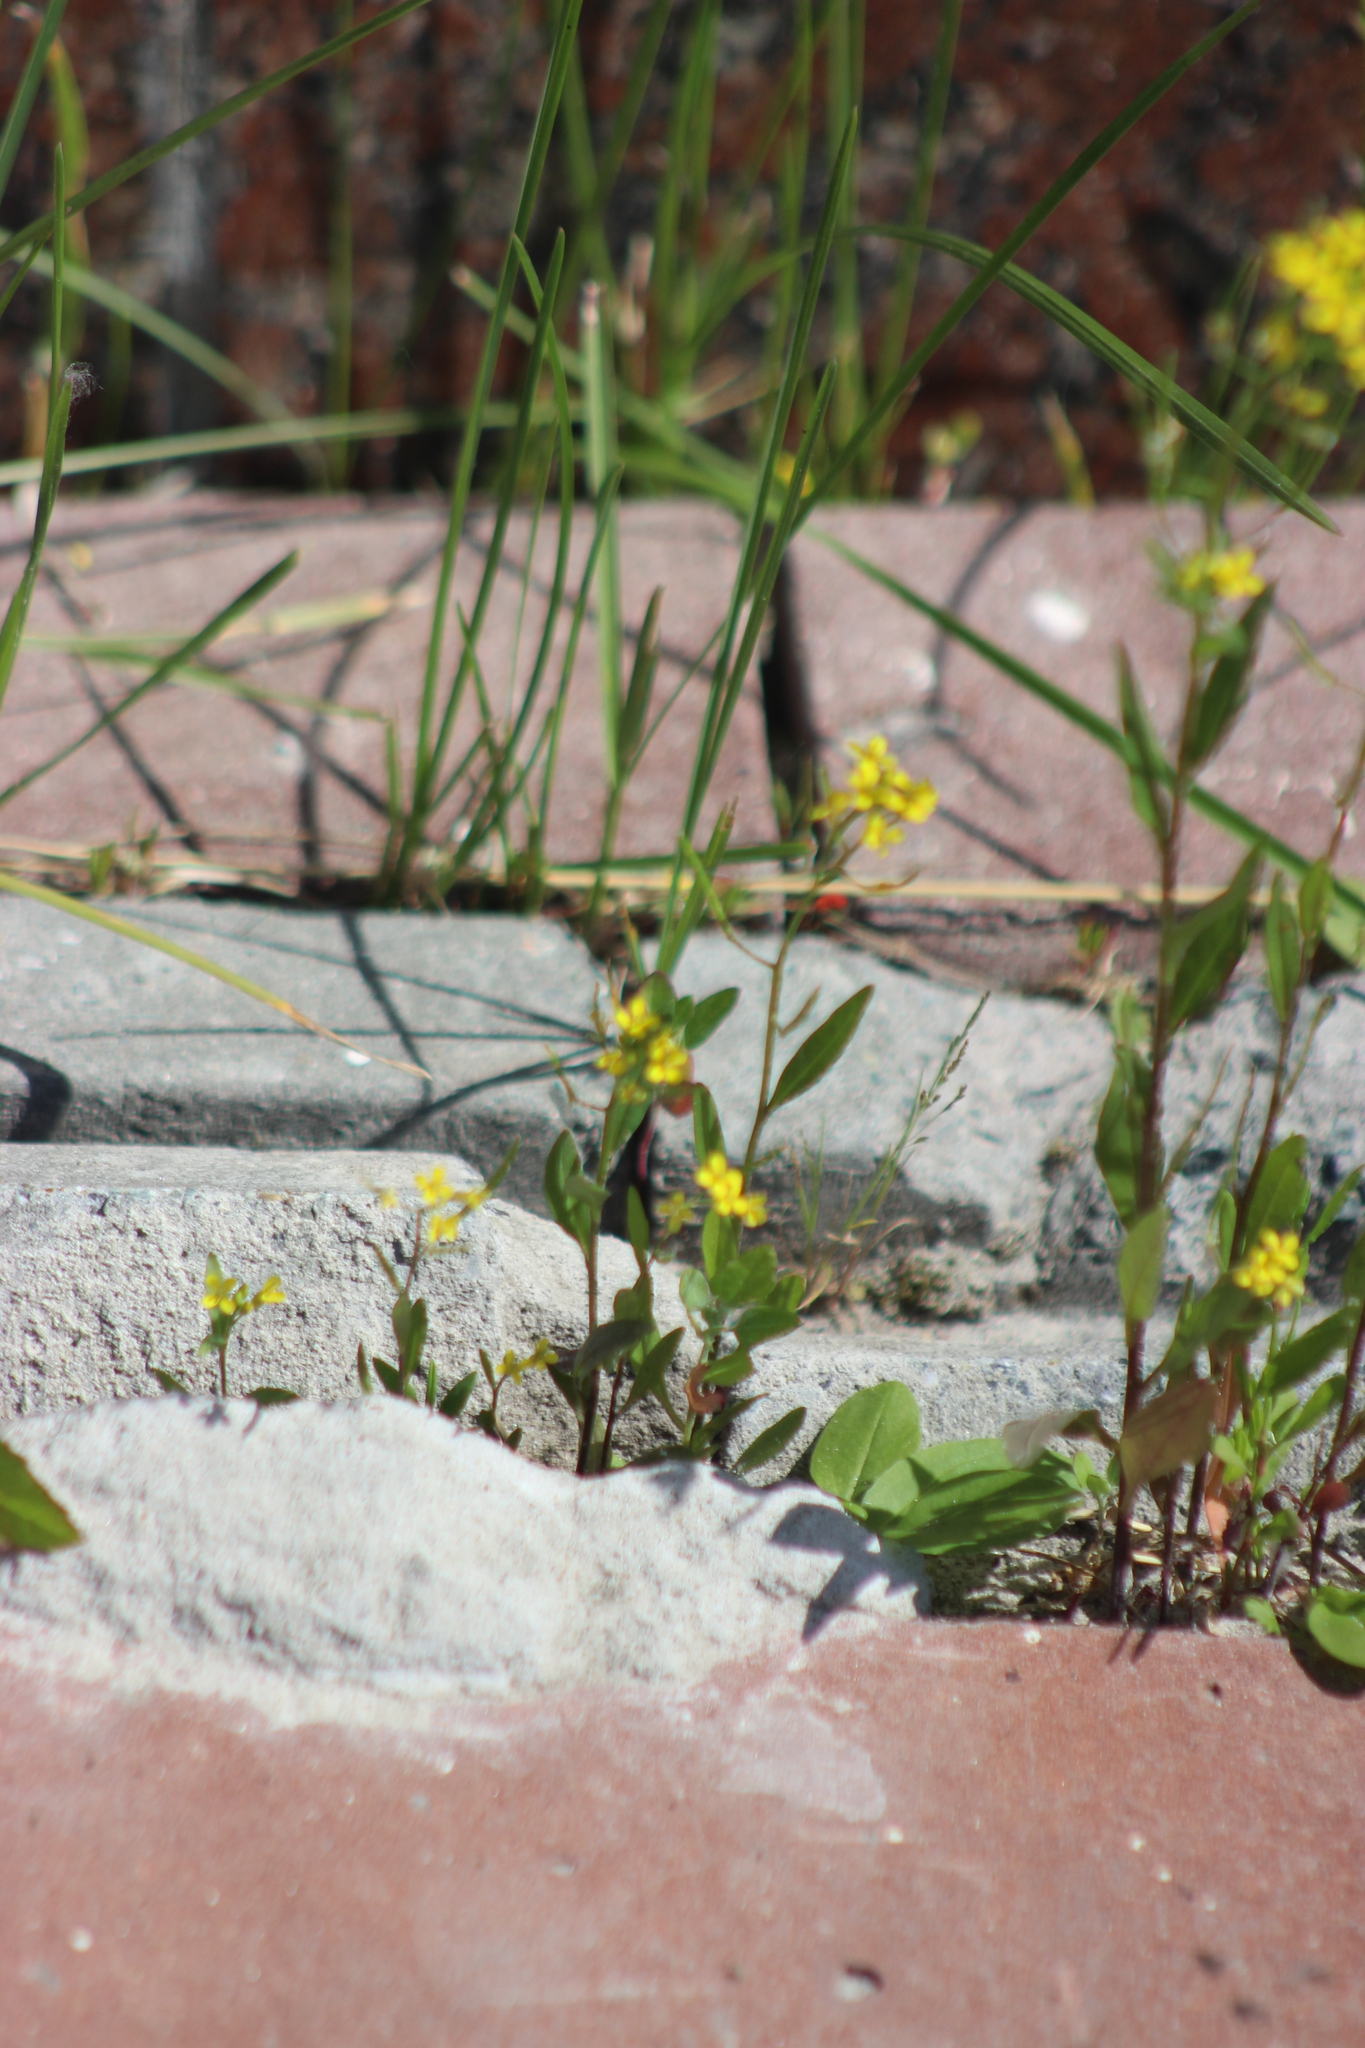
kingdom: Plantae
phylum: Tracheophyta
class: Magnoliopsida
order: Brassicales
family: Brassicaceae
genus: Erysimum
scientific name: Erysimum cheiranthoides
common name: Treacle mustard
